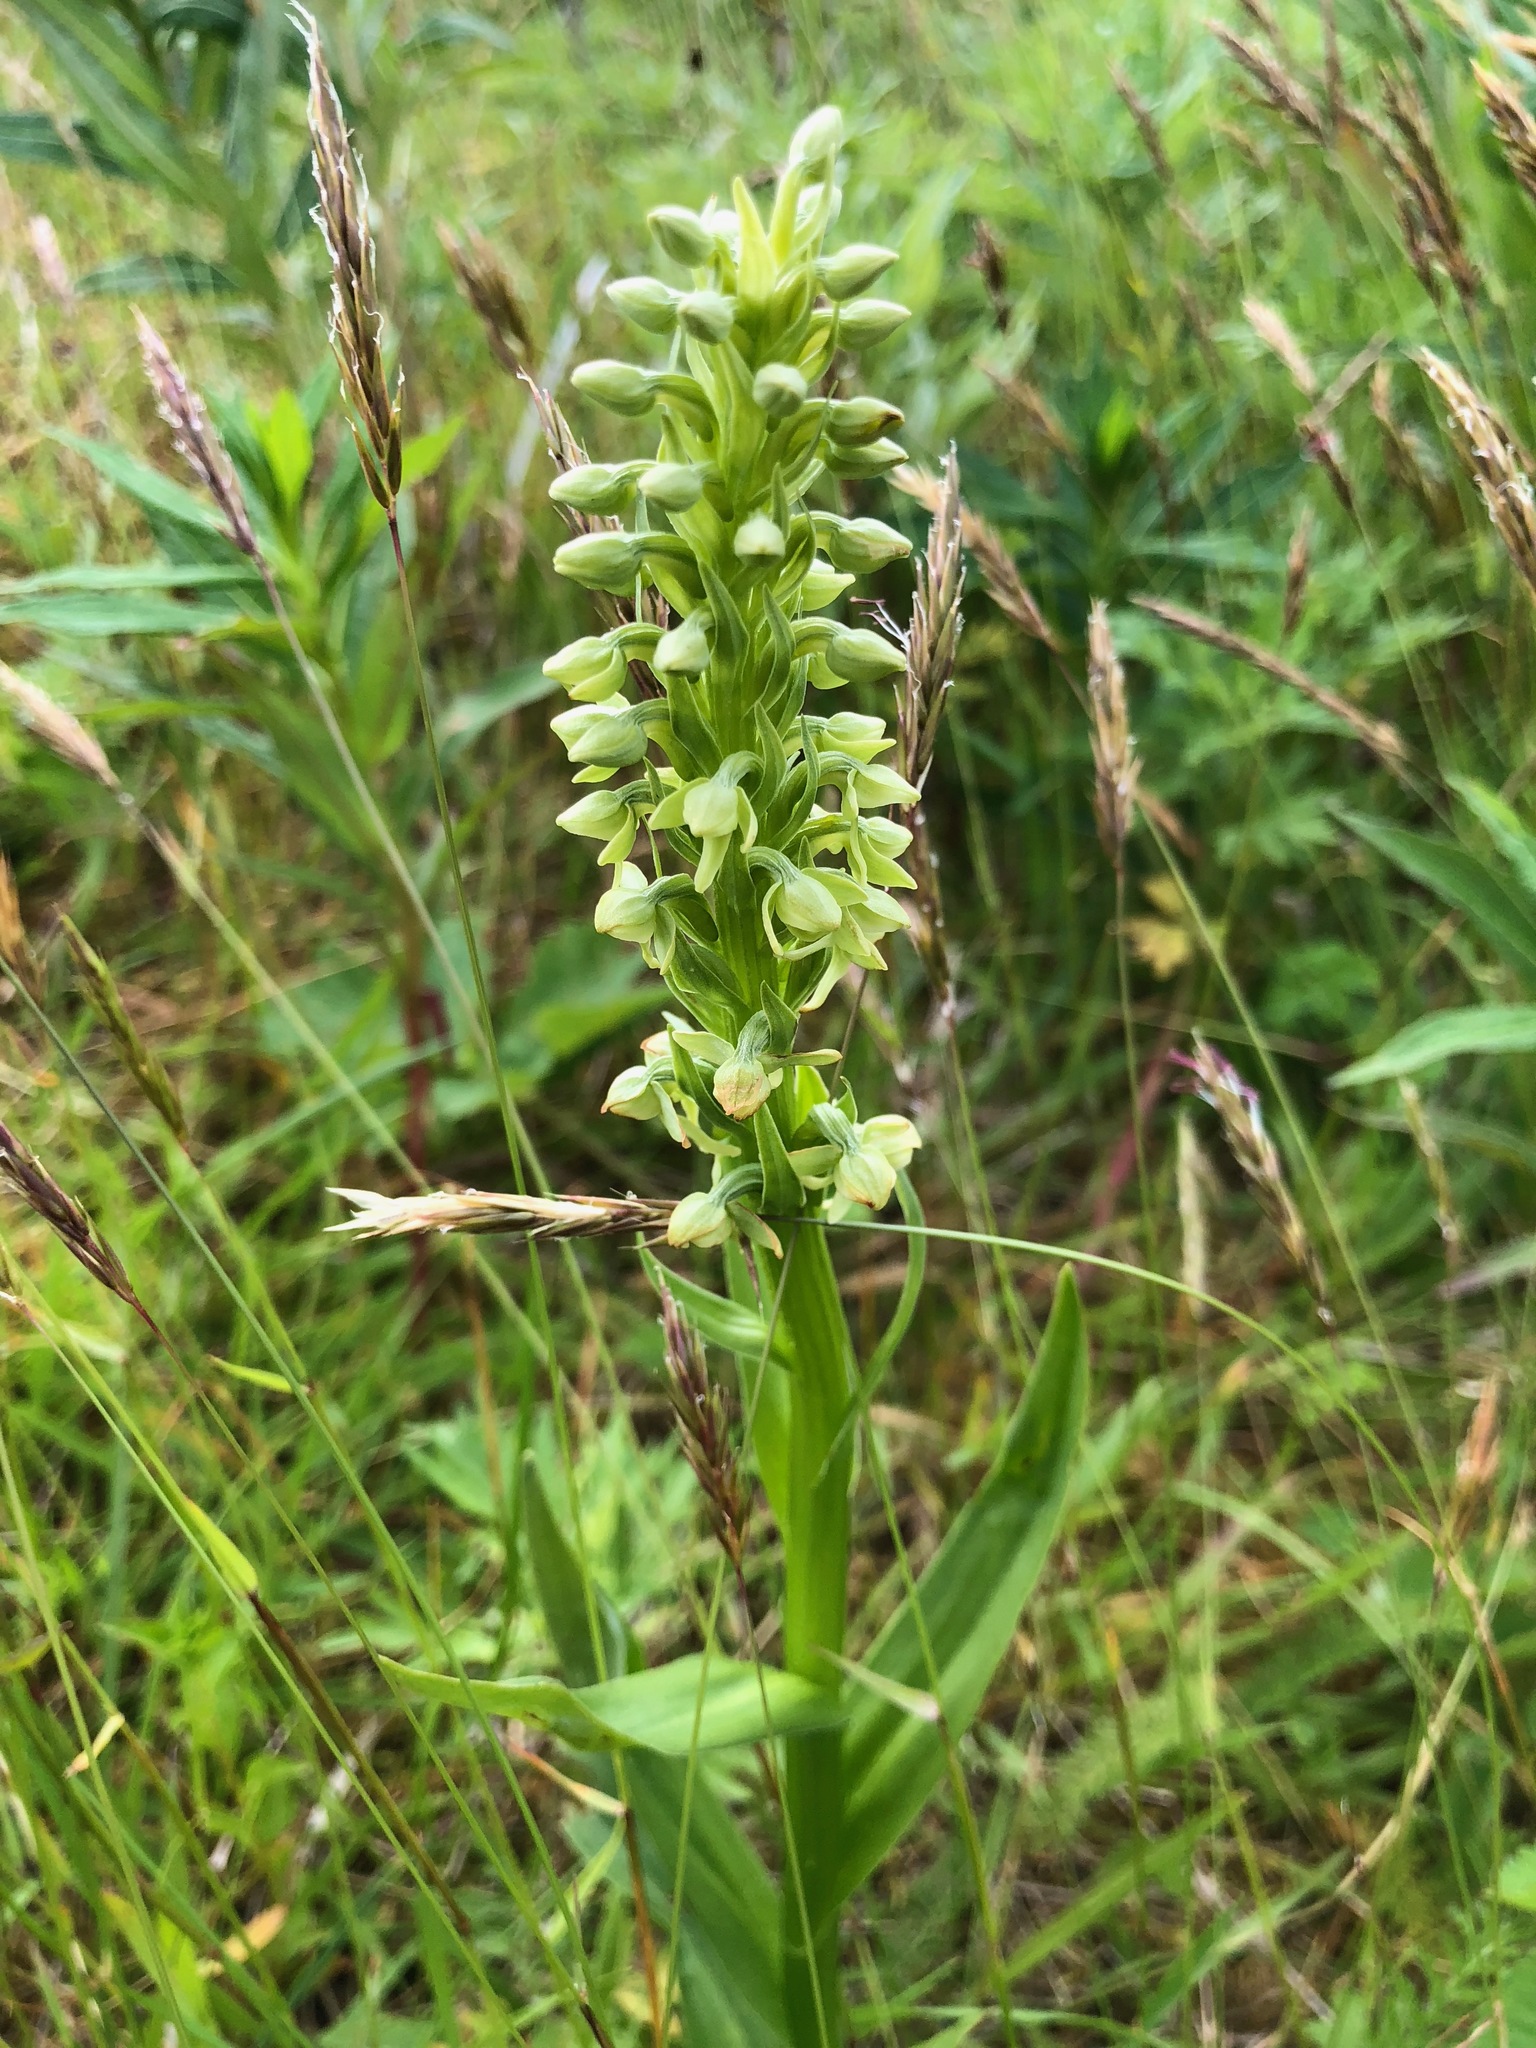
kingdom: Plantae
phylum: Tracheophyta
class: Liliopsida
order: Asparagales
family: Orchidaceae
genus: Platanthera
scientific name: Platanthera convallariifolia
